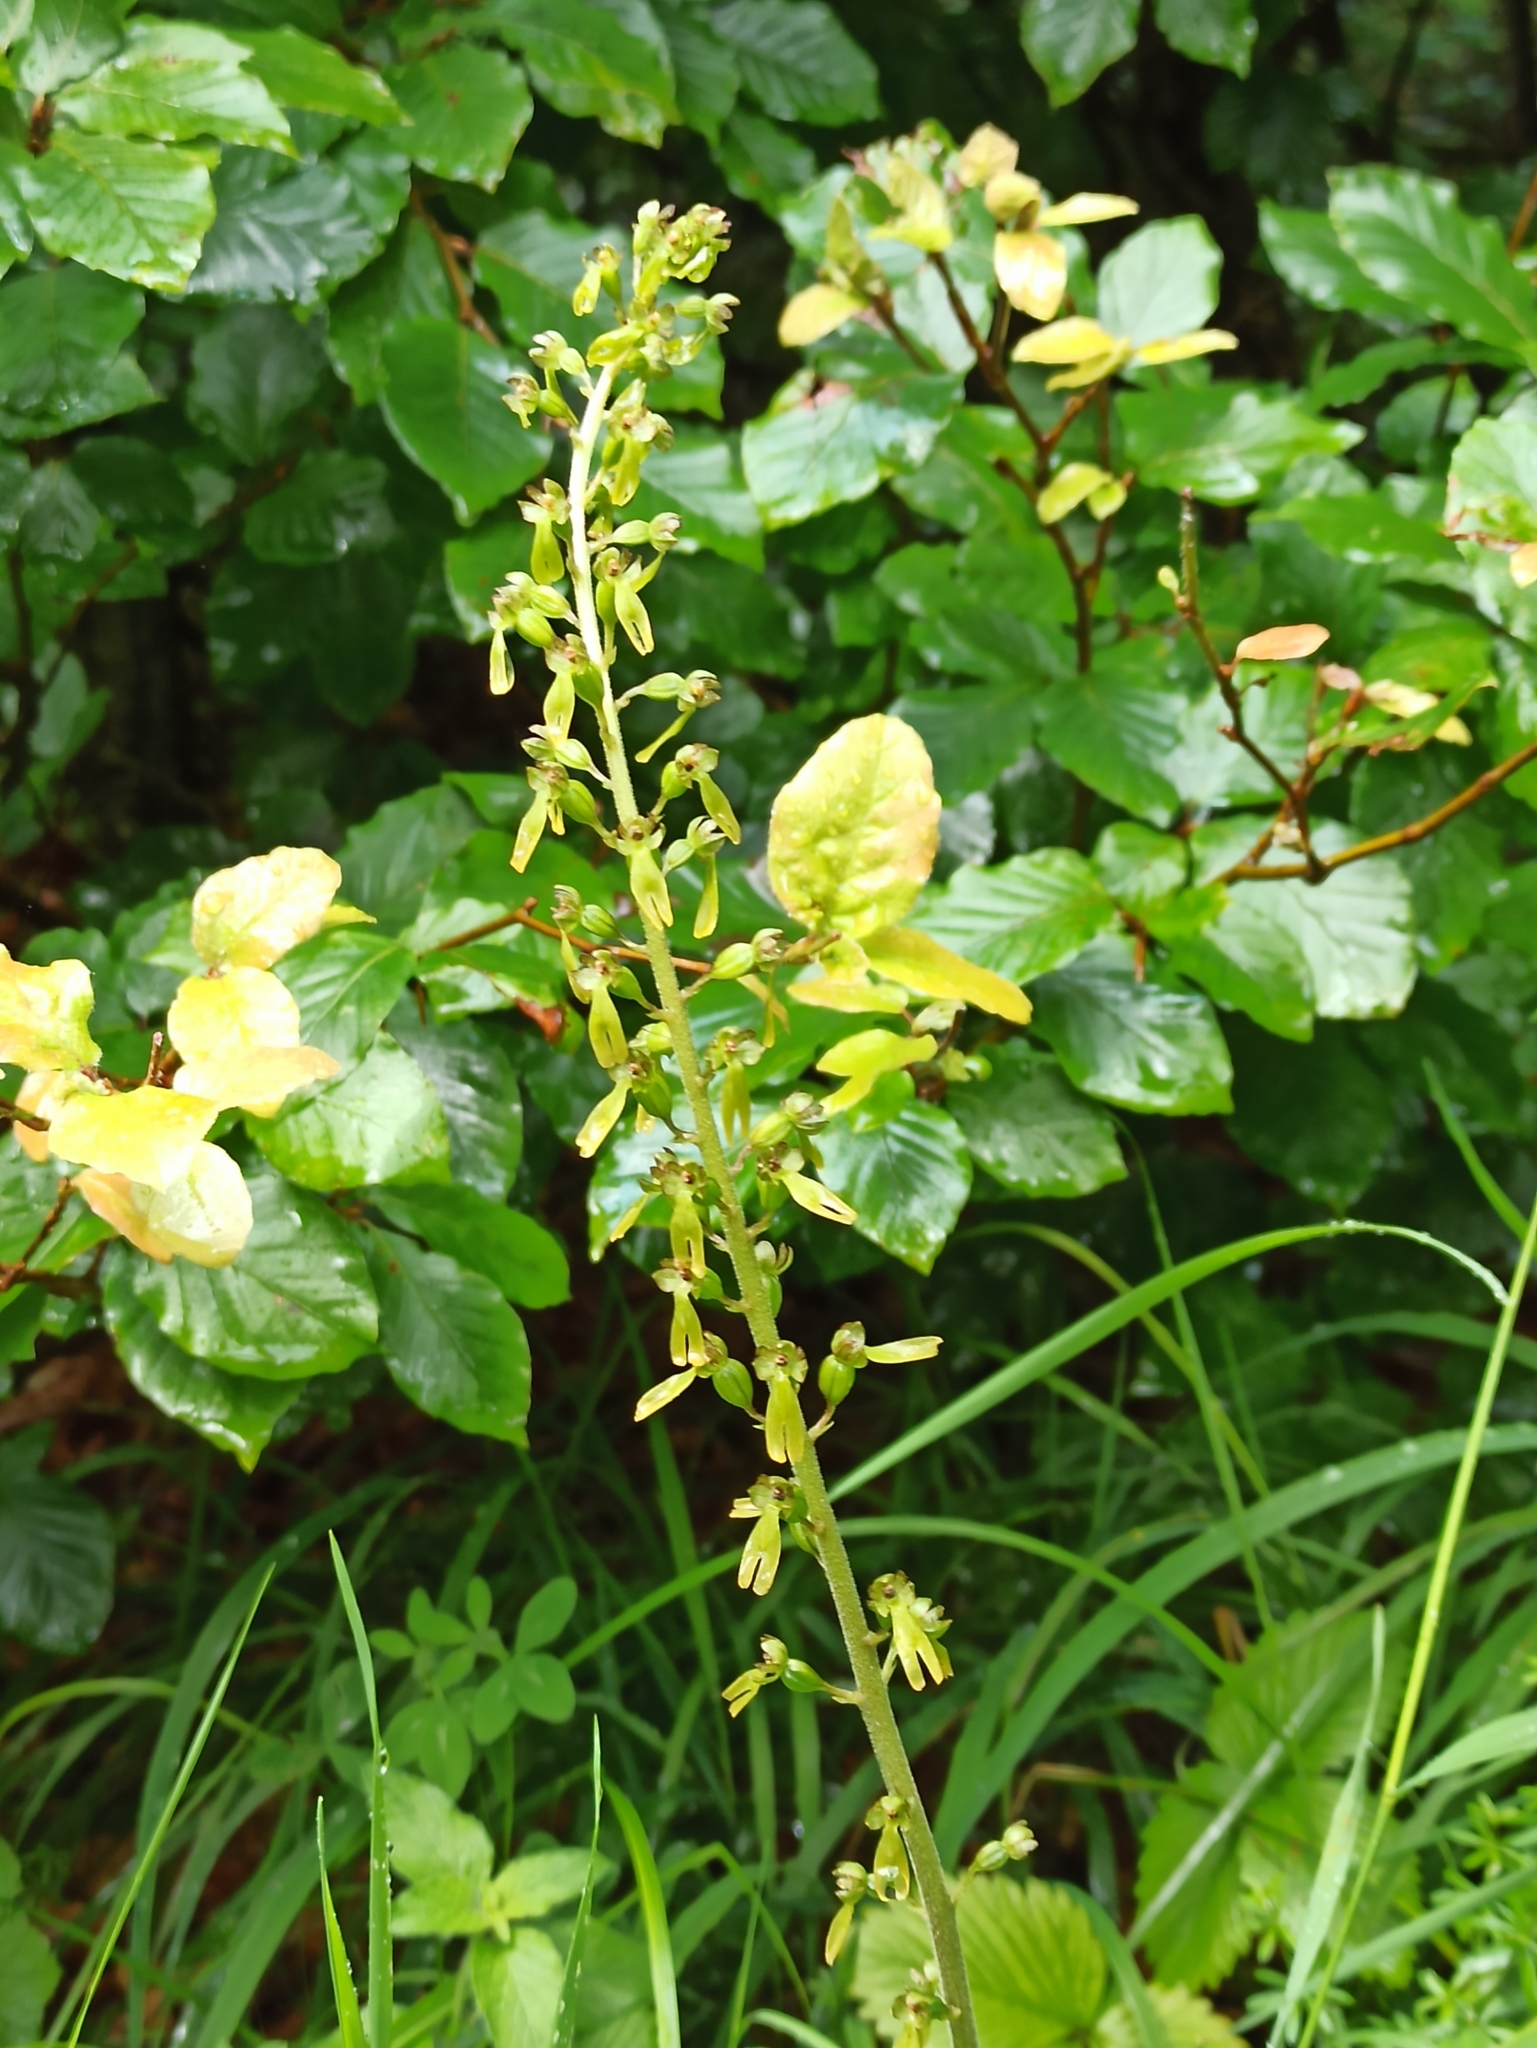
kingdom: Plantae
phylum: Tracheophyta
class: Liliopsida
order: Asparagales
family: Orchidaceae
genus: Neottia
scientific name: Neottia ovata
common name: Common twayblade
